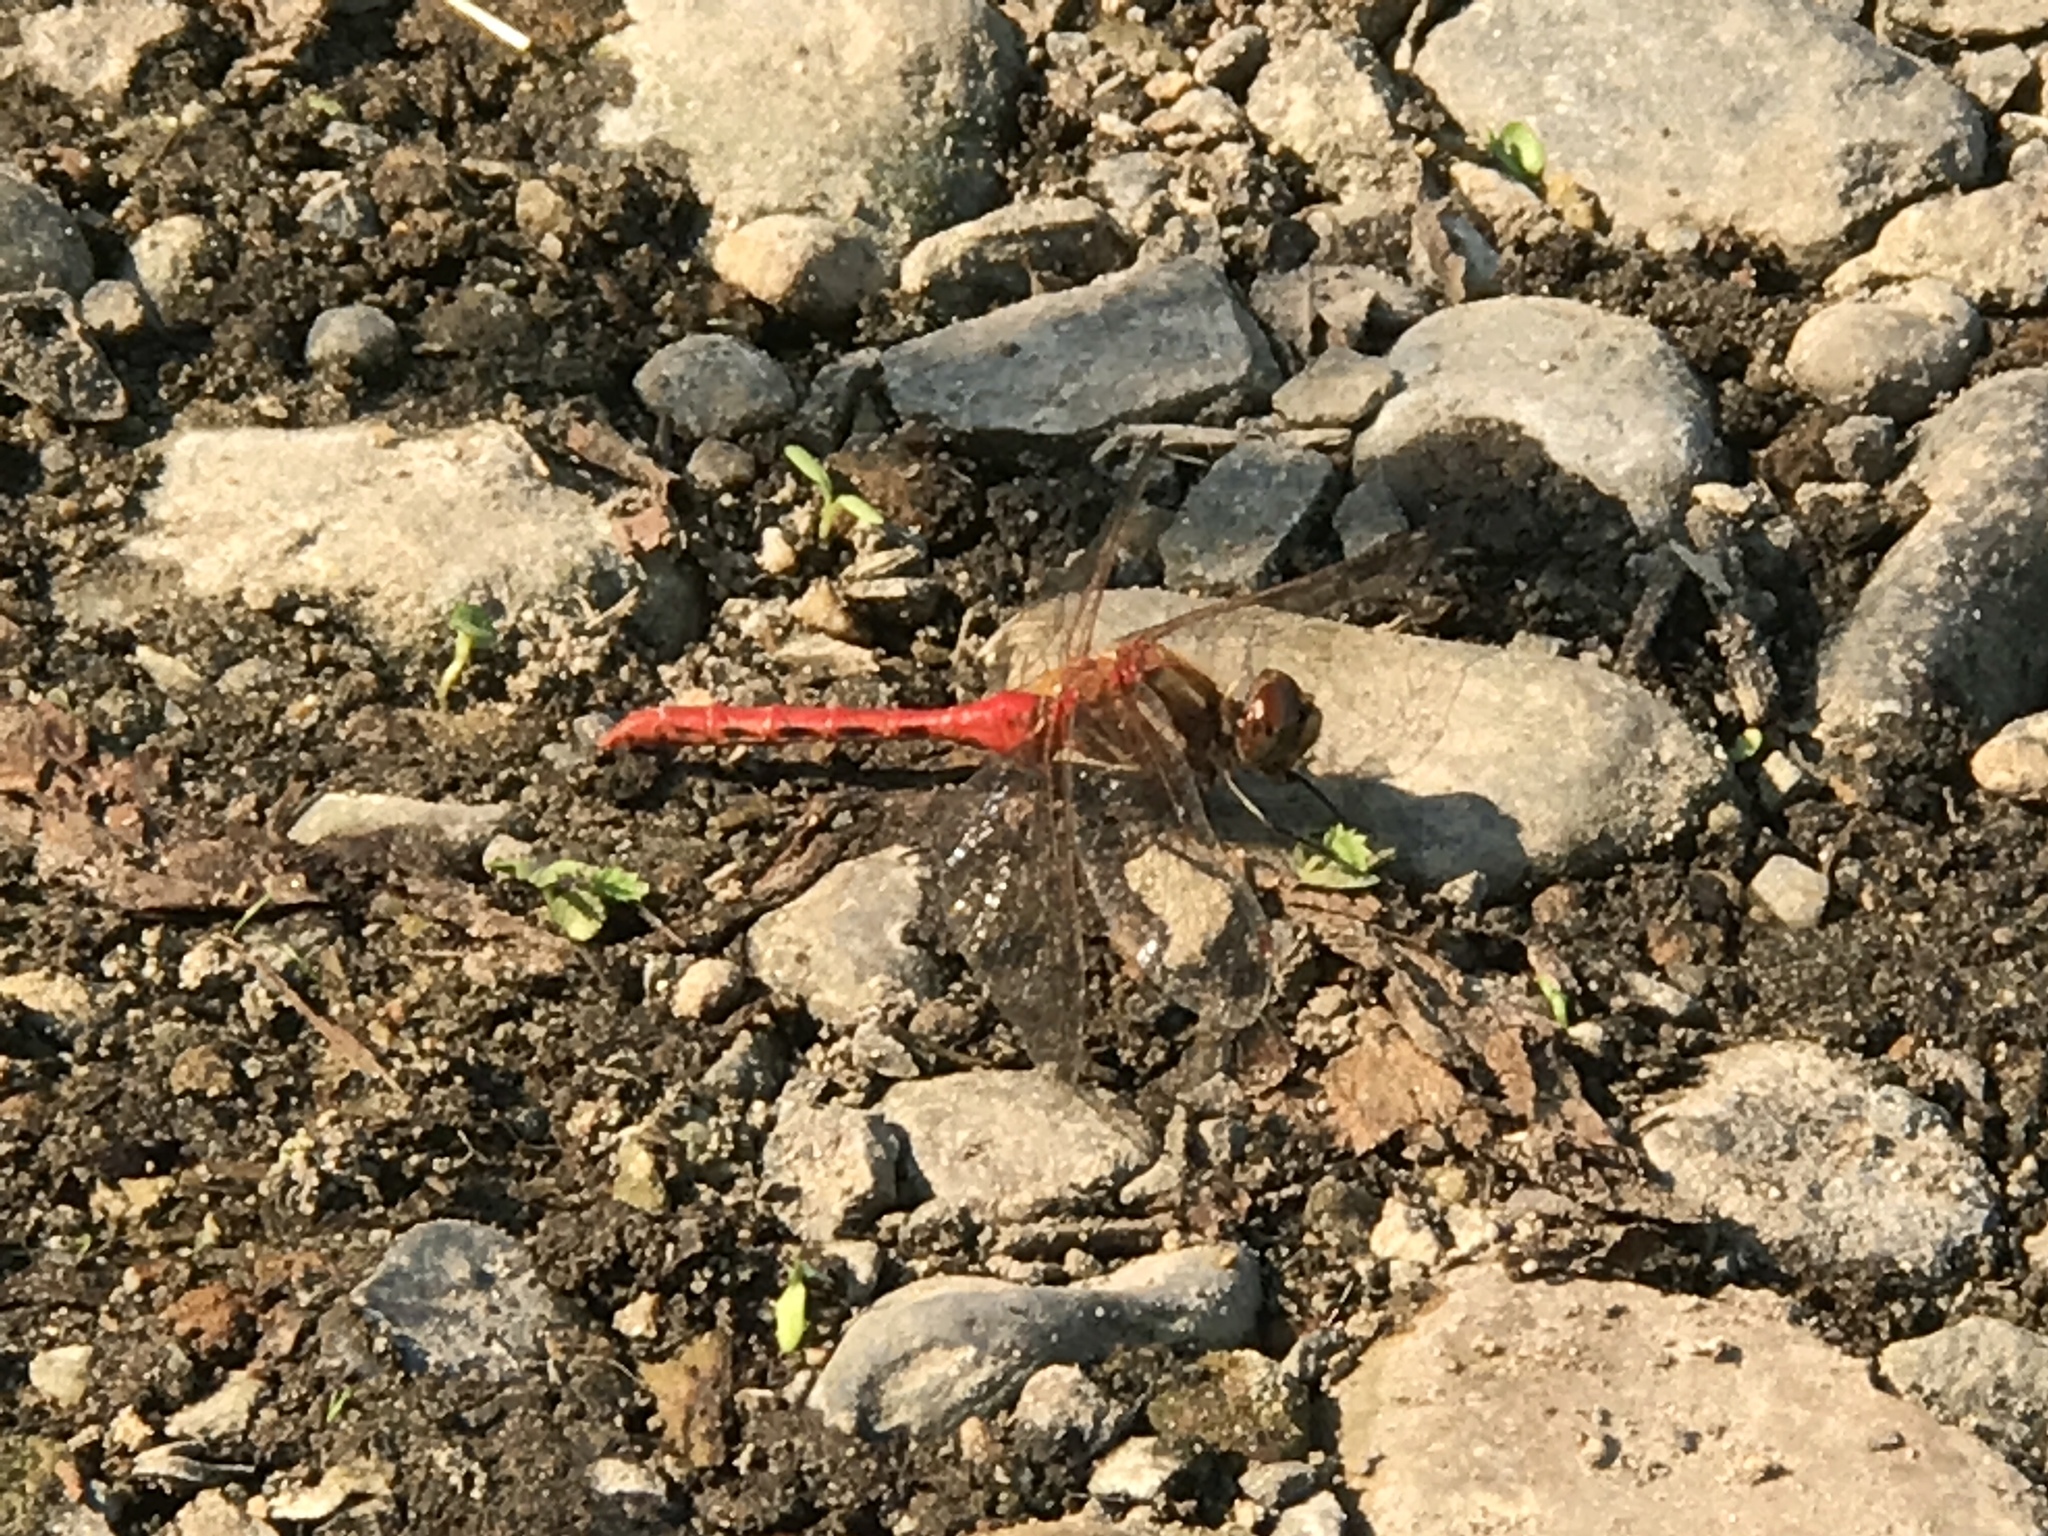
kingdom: Animalia
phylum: Arthropoda
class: Insecta
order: Odonata
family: Libellulidae
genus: Sympetrum
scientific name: Sympetrum pallipes
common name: Striped meadowhawk
